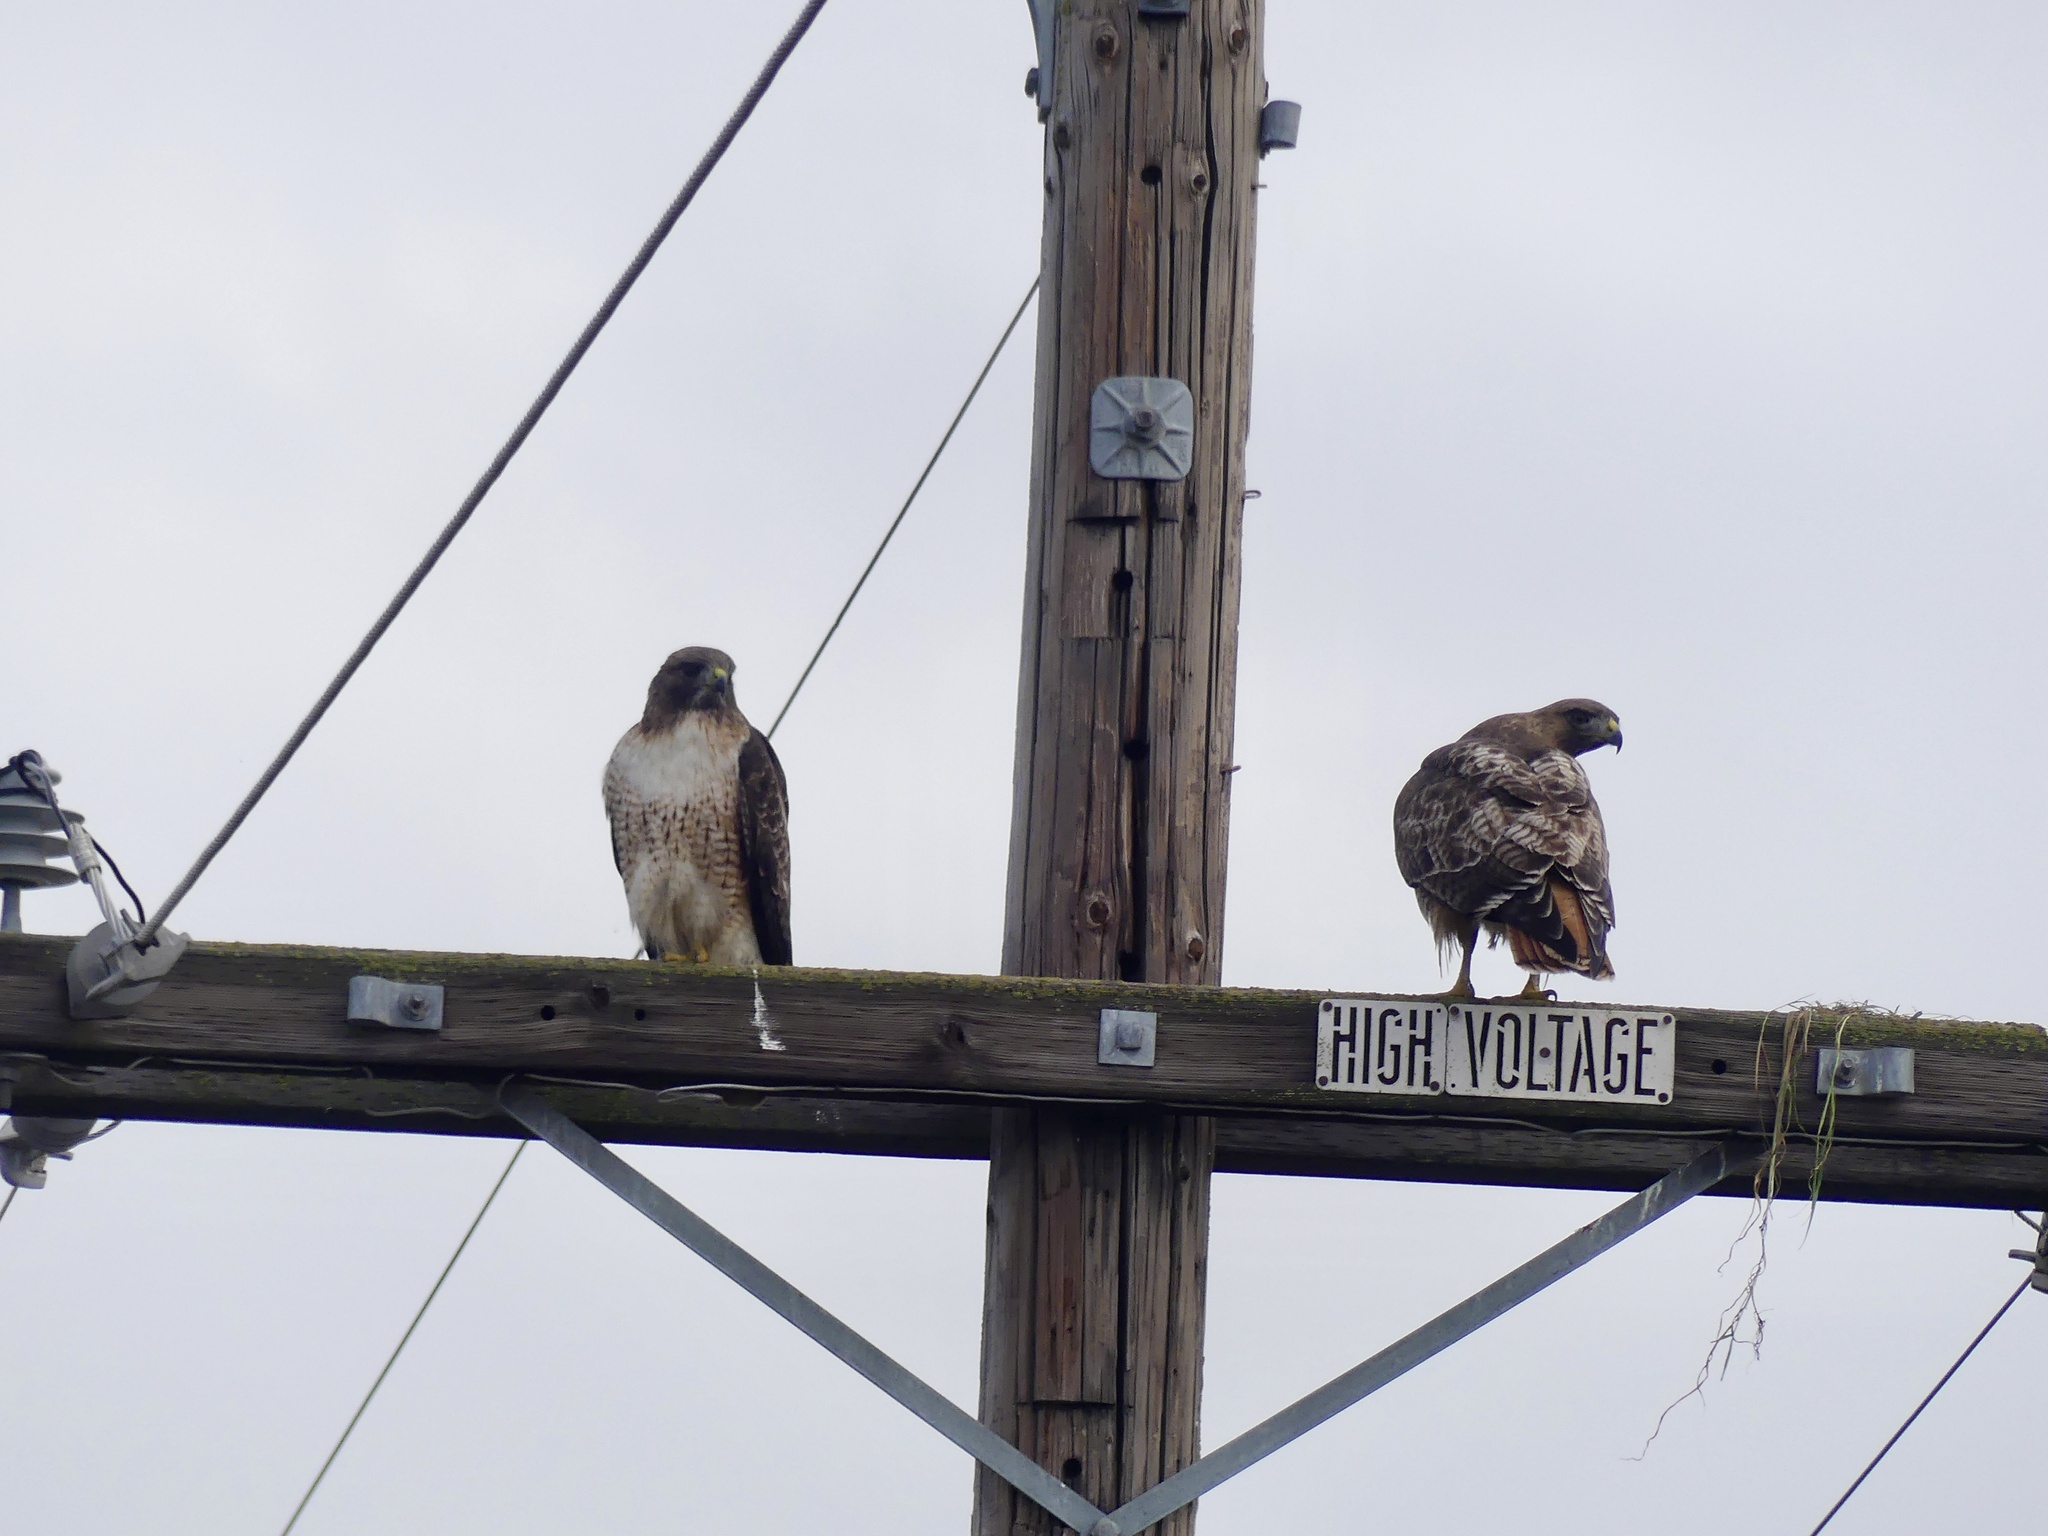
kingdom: Animalia
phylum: Chordata
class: Aves
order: Accipitriformes
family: Accipitridae
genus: Buteo
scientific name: Buteo jamaicensis
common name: Red-tailed hawk
